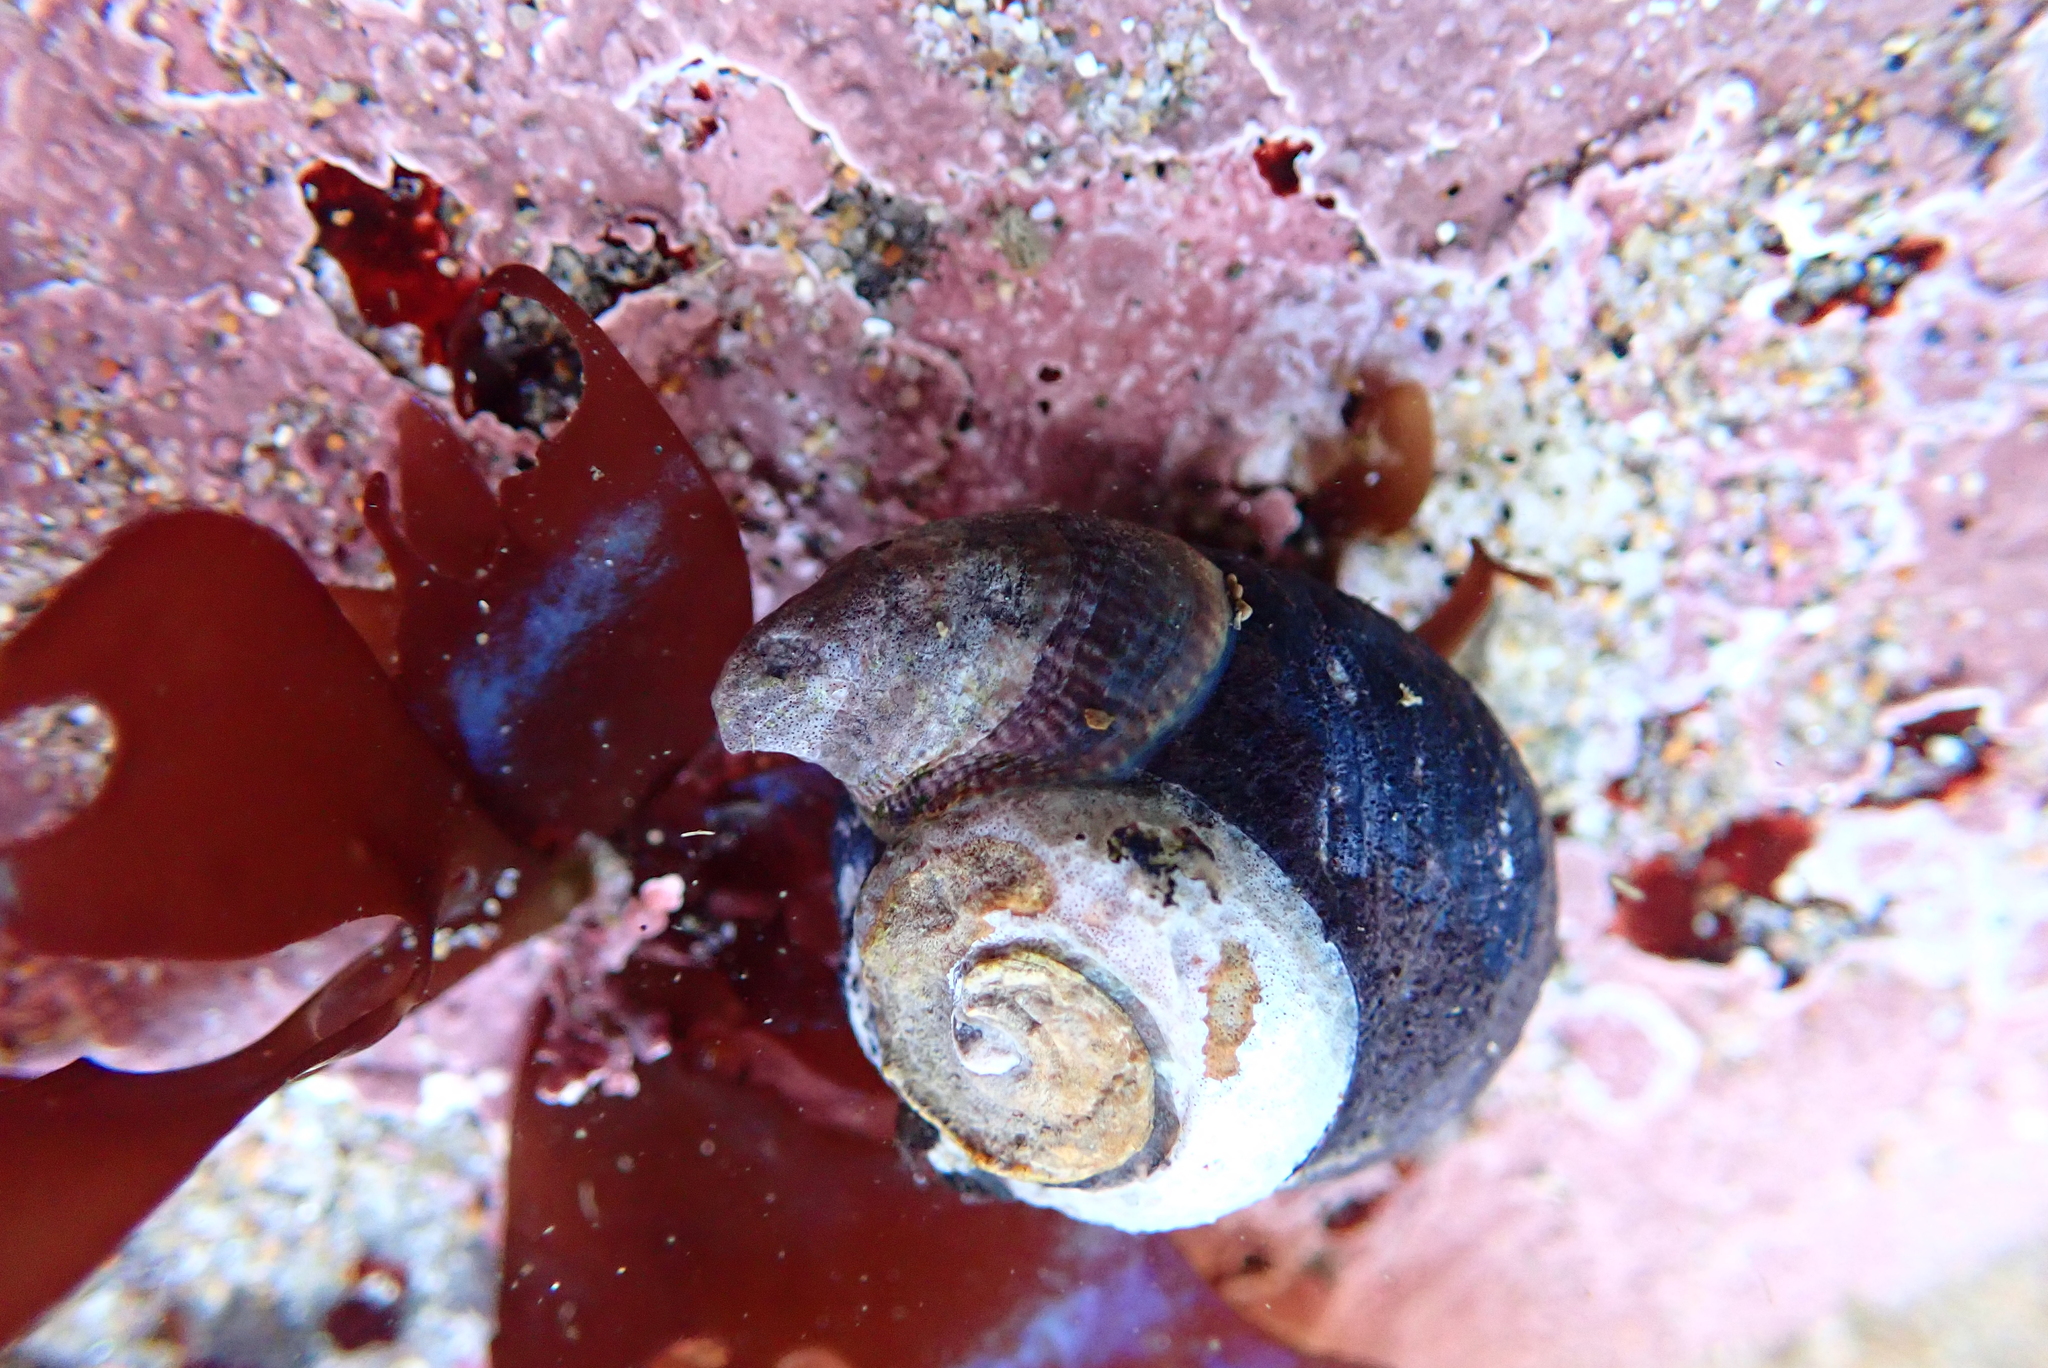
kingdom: Animalia
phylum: Mollusca
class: Gastropoda
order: Trochida
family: Tegulidae
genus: Tegula
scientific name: Tegula funebralis
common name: Black tegula
